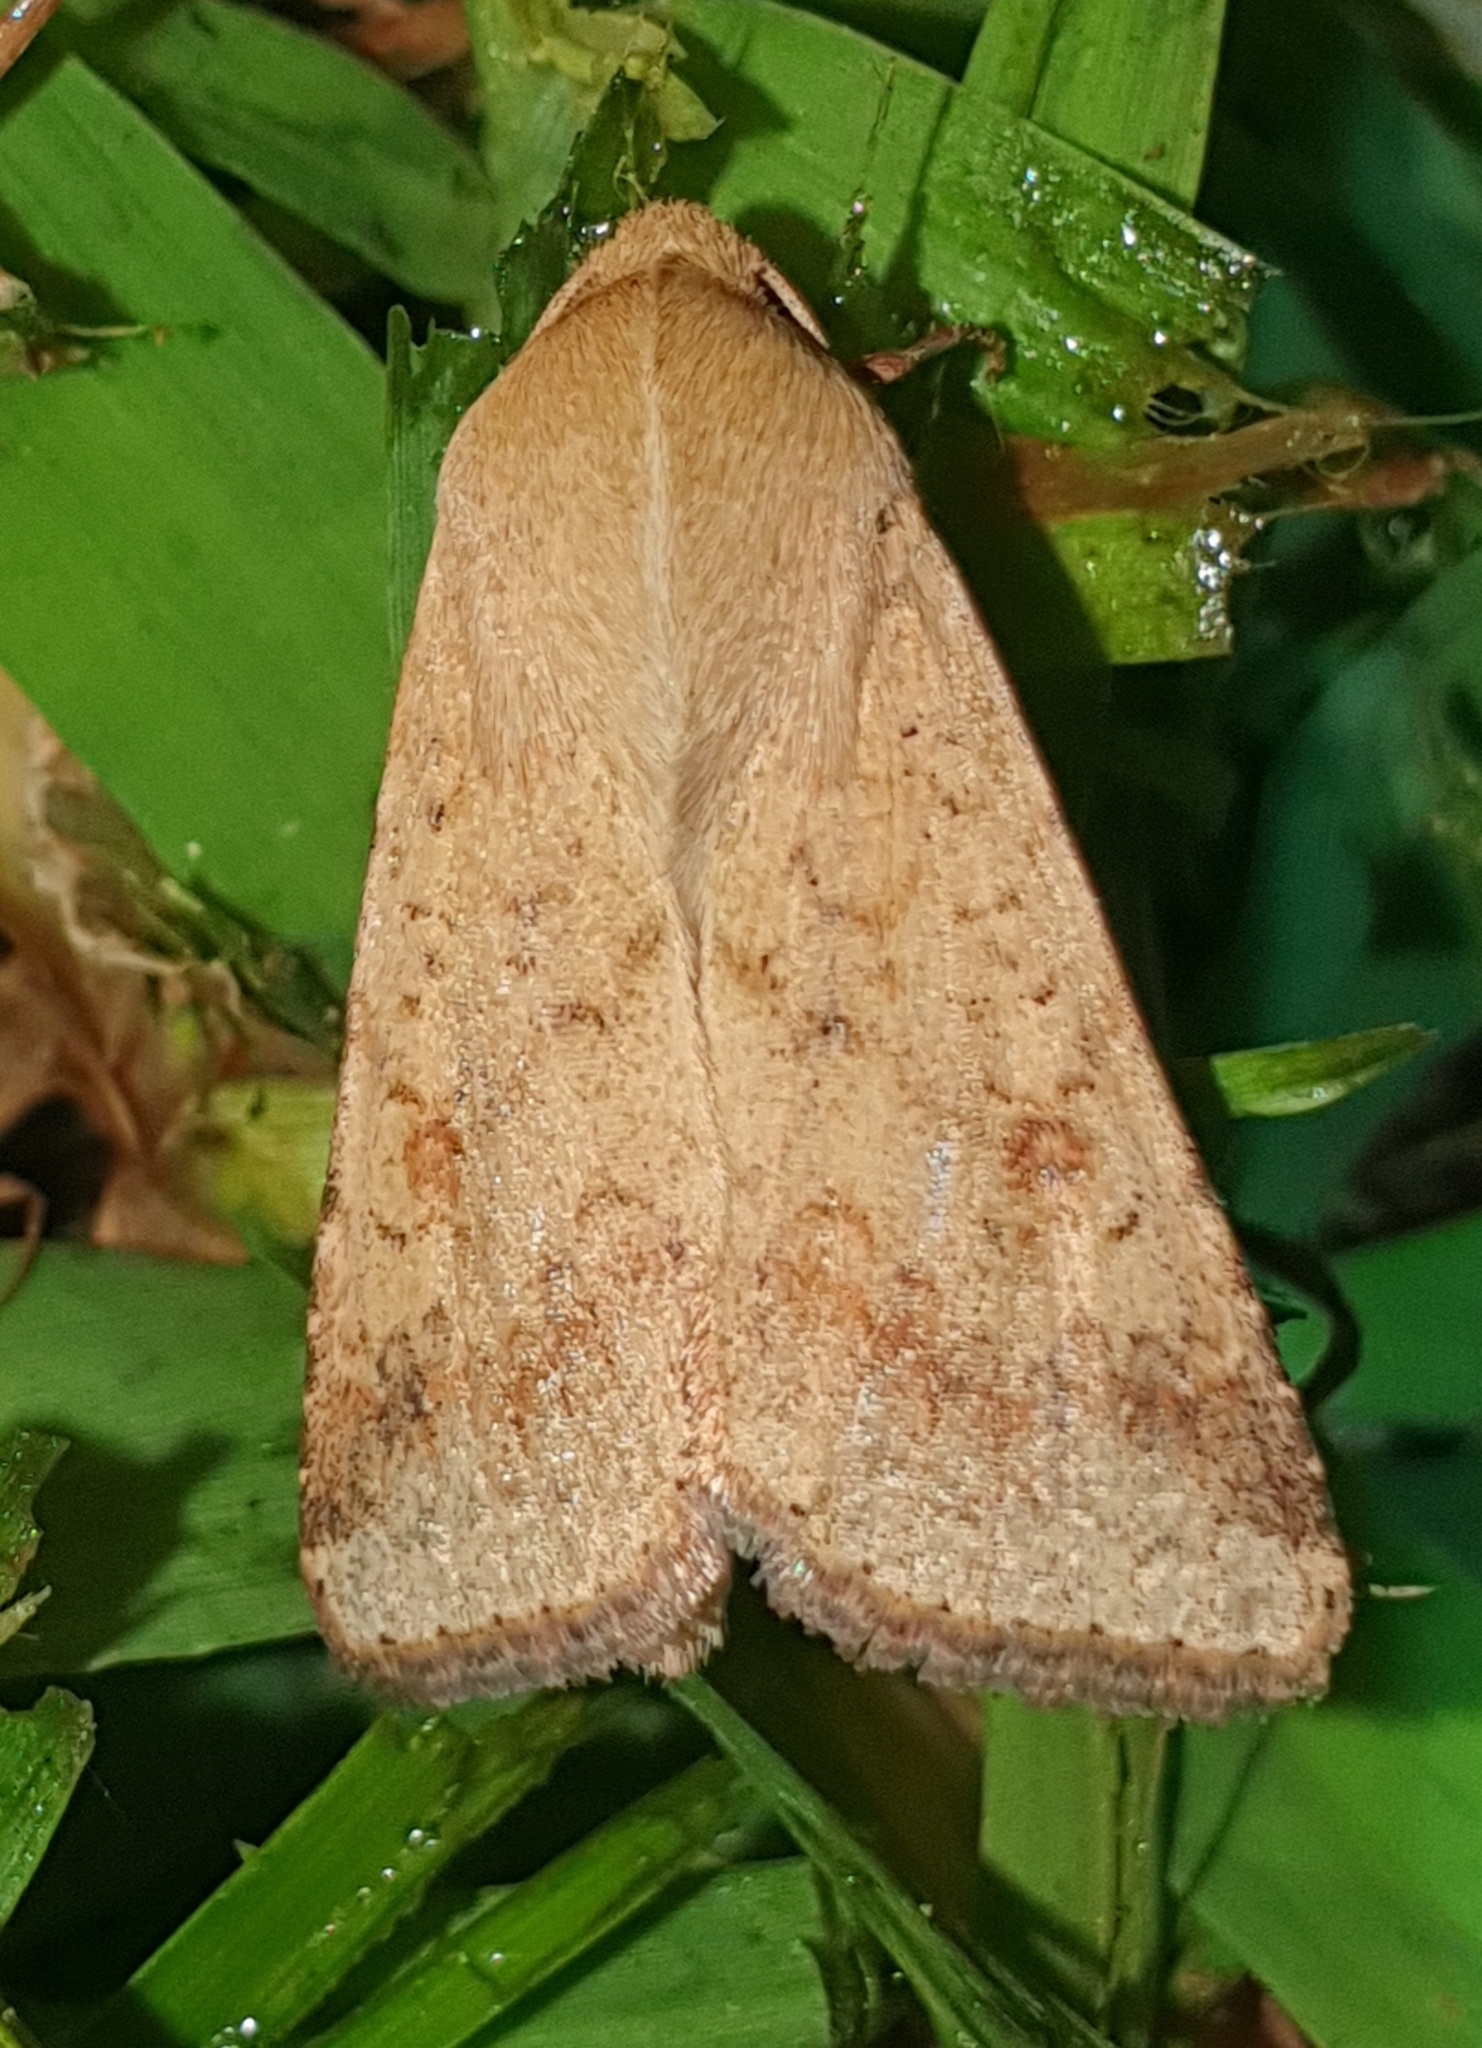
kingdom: Animalia
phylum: Arthropoda
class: Insecta
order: Lepidoptera
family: Noctuidae
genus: Helicoverpa
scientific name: Helicoverpa armigera
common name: Cotton bollworm
